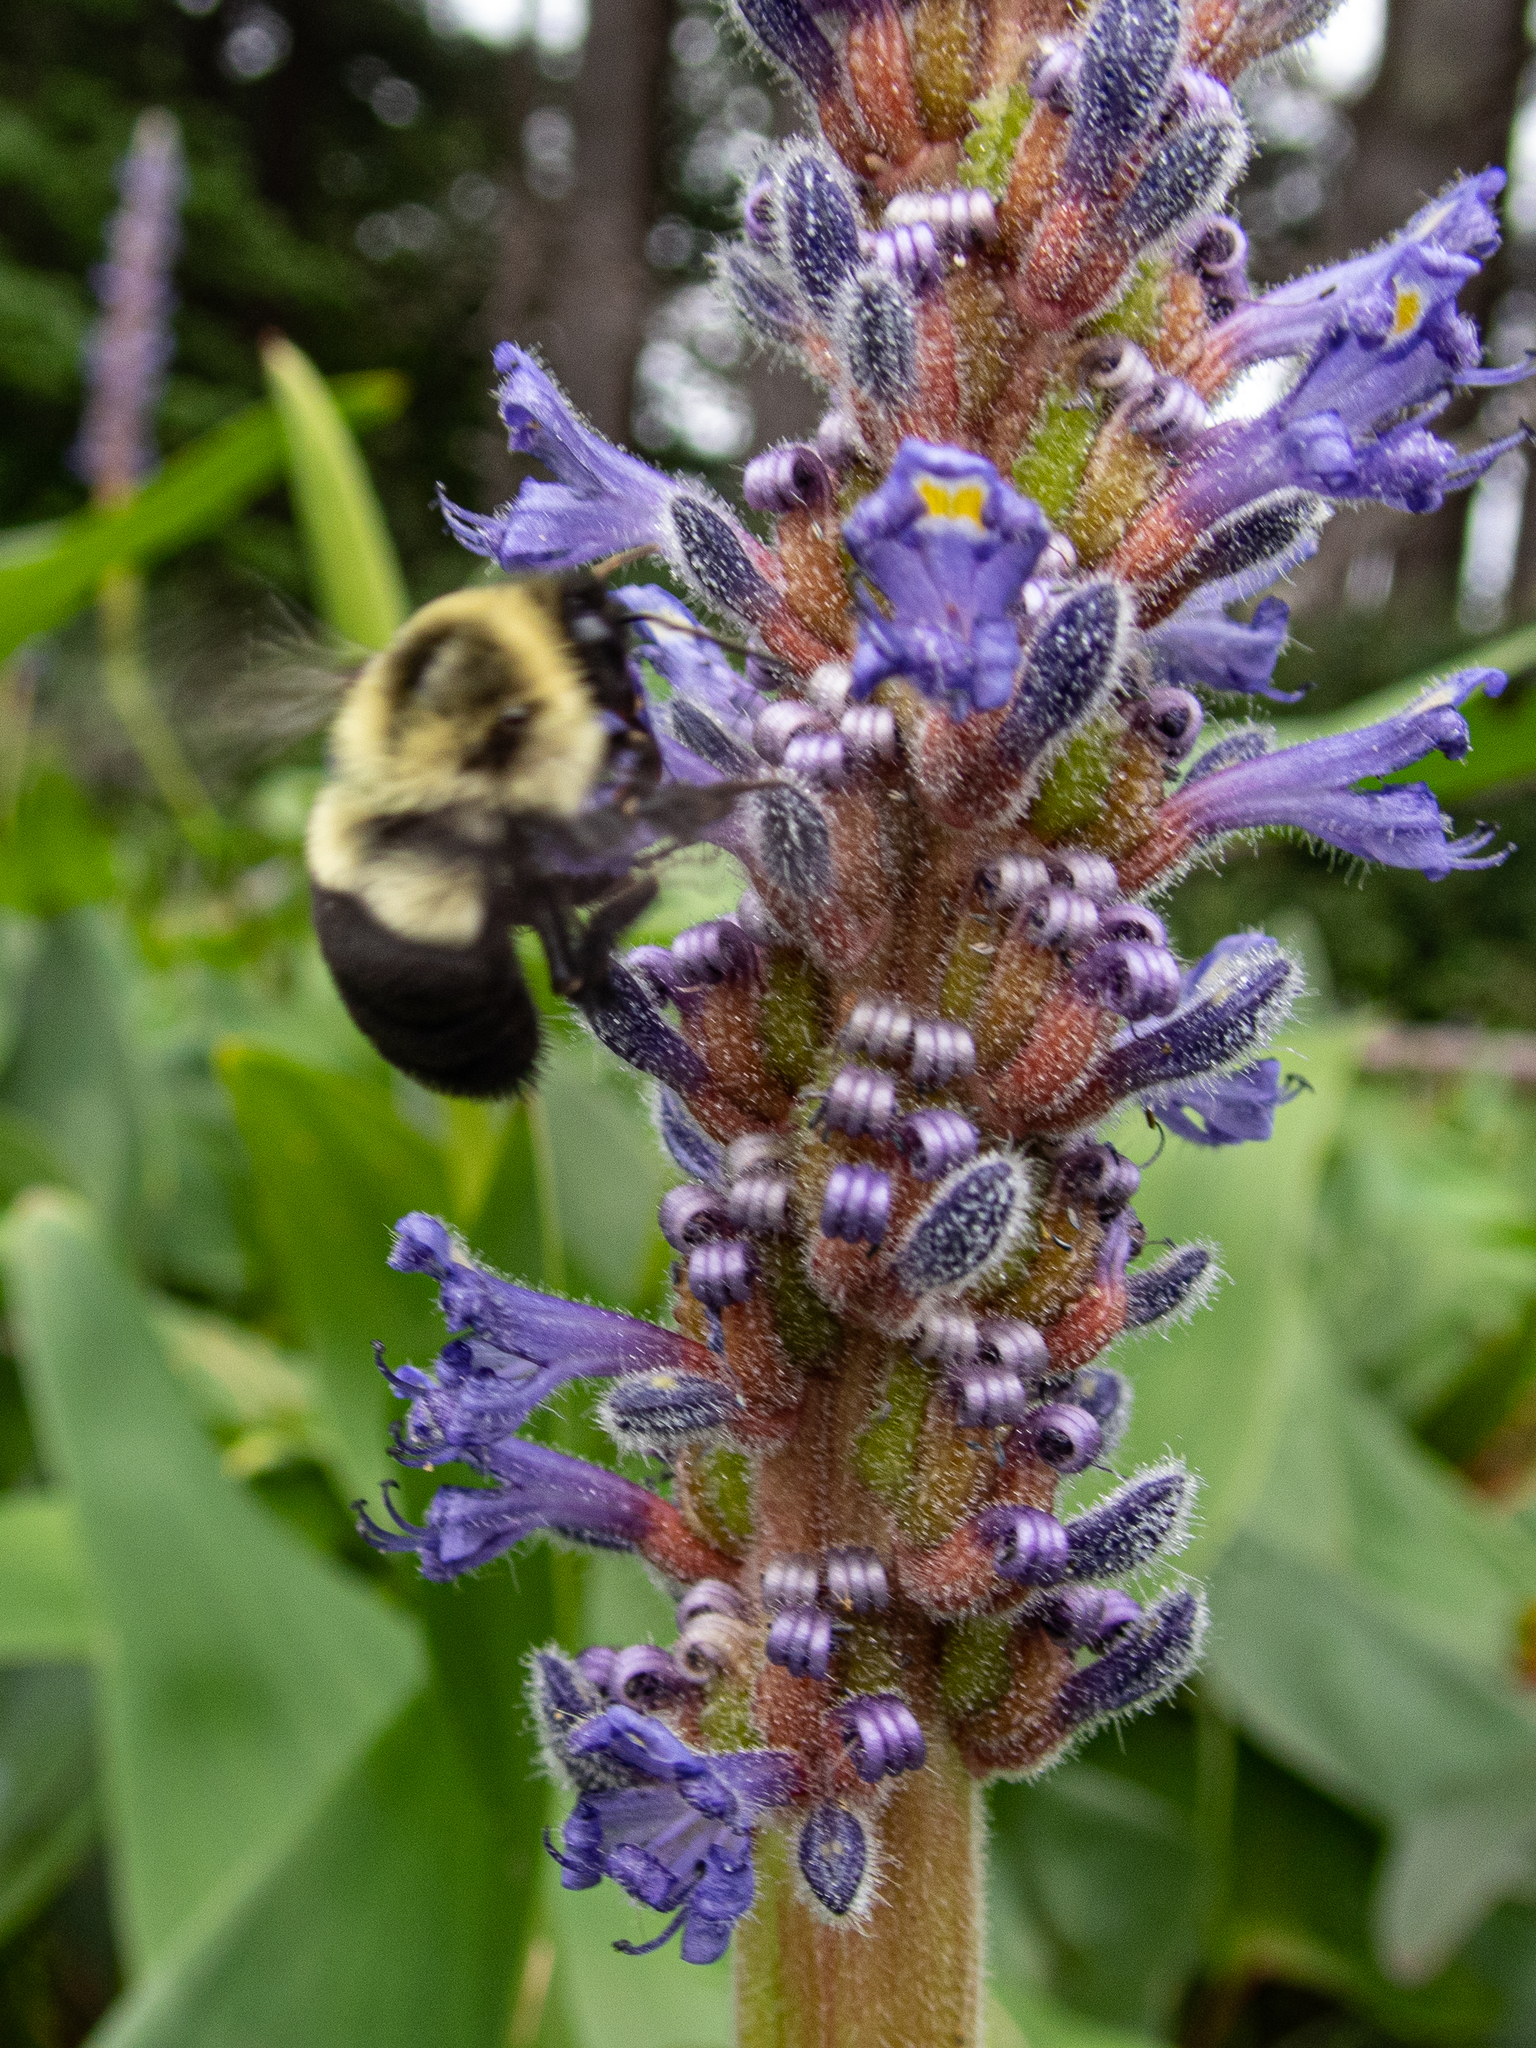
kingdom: Plantae
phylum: Tracheophyta
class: Liliopsida
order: Commelinales
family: Pontederiaceae
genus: Pontederia
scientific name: Pontederia cordata
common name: Pickerelweed
